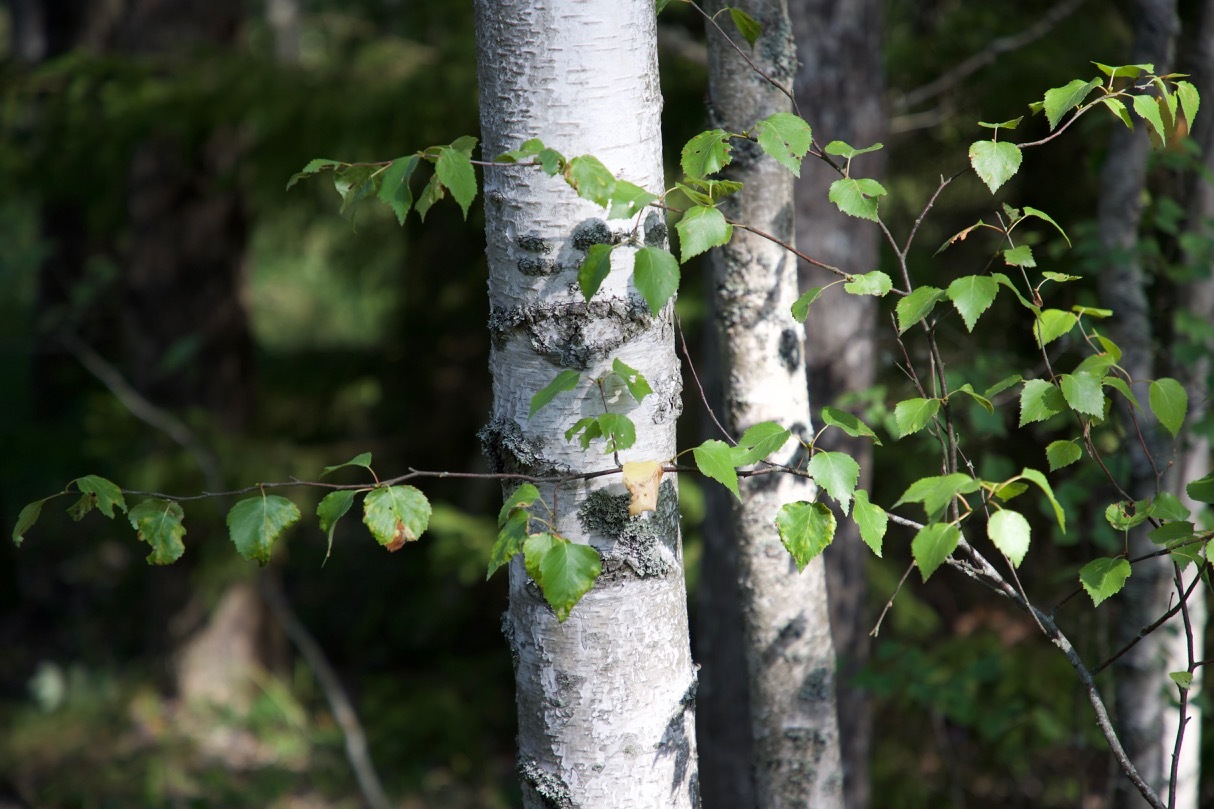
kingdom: Plantae
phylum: Tracheophyta
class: Magnoliopsida
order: Fagales
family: Betulaceae
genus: Betula
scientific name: Betula pendula
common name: Silver birch
